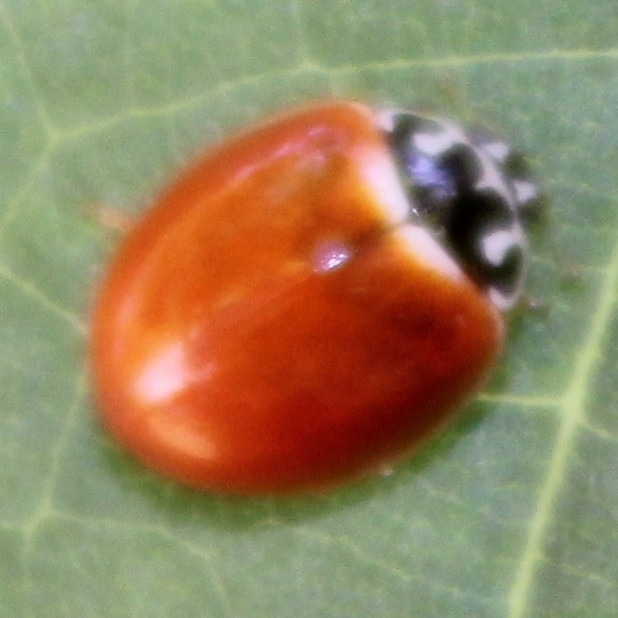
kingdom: Animalia
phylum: Arthropoda
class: Insecta
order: Coleoptera
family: Coccinellidae
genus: Cycloneda
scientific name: Cycloneda munda
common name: Polished lady beetle
